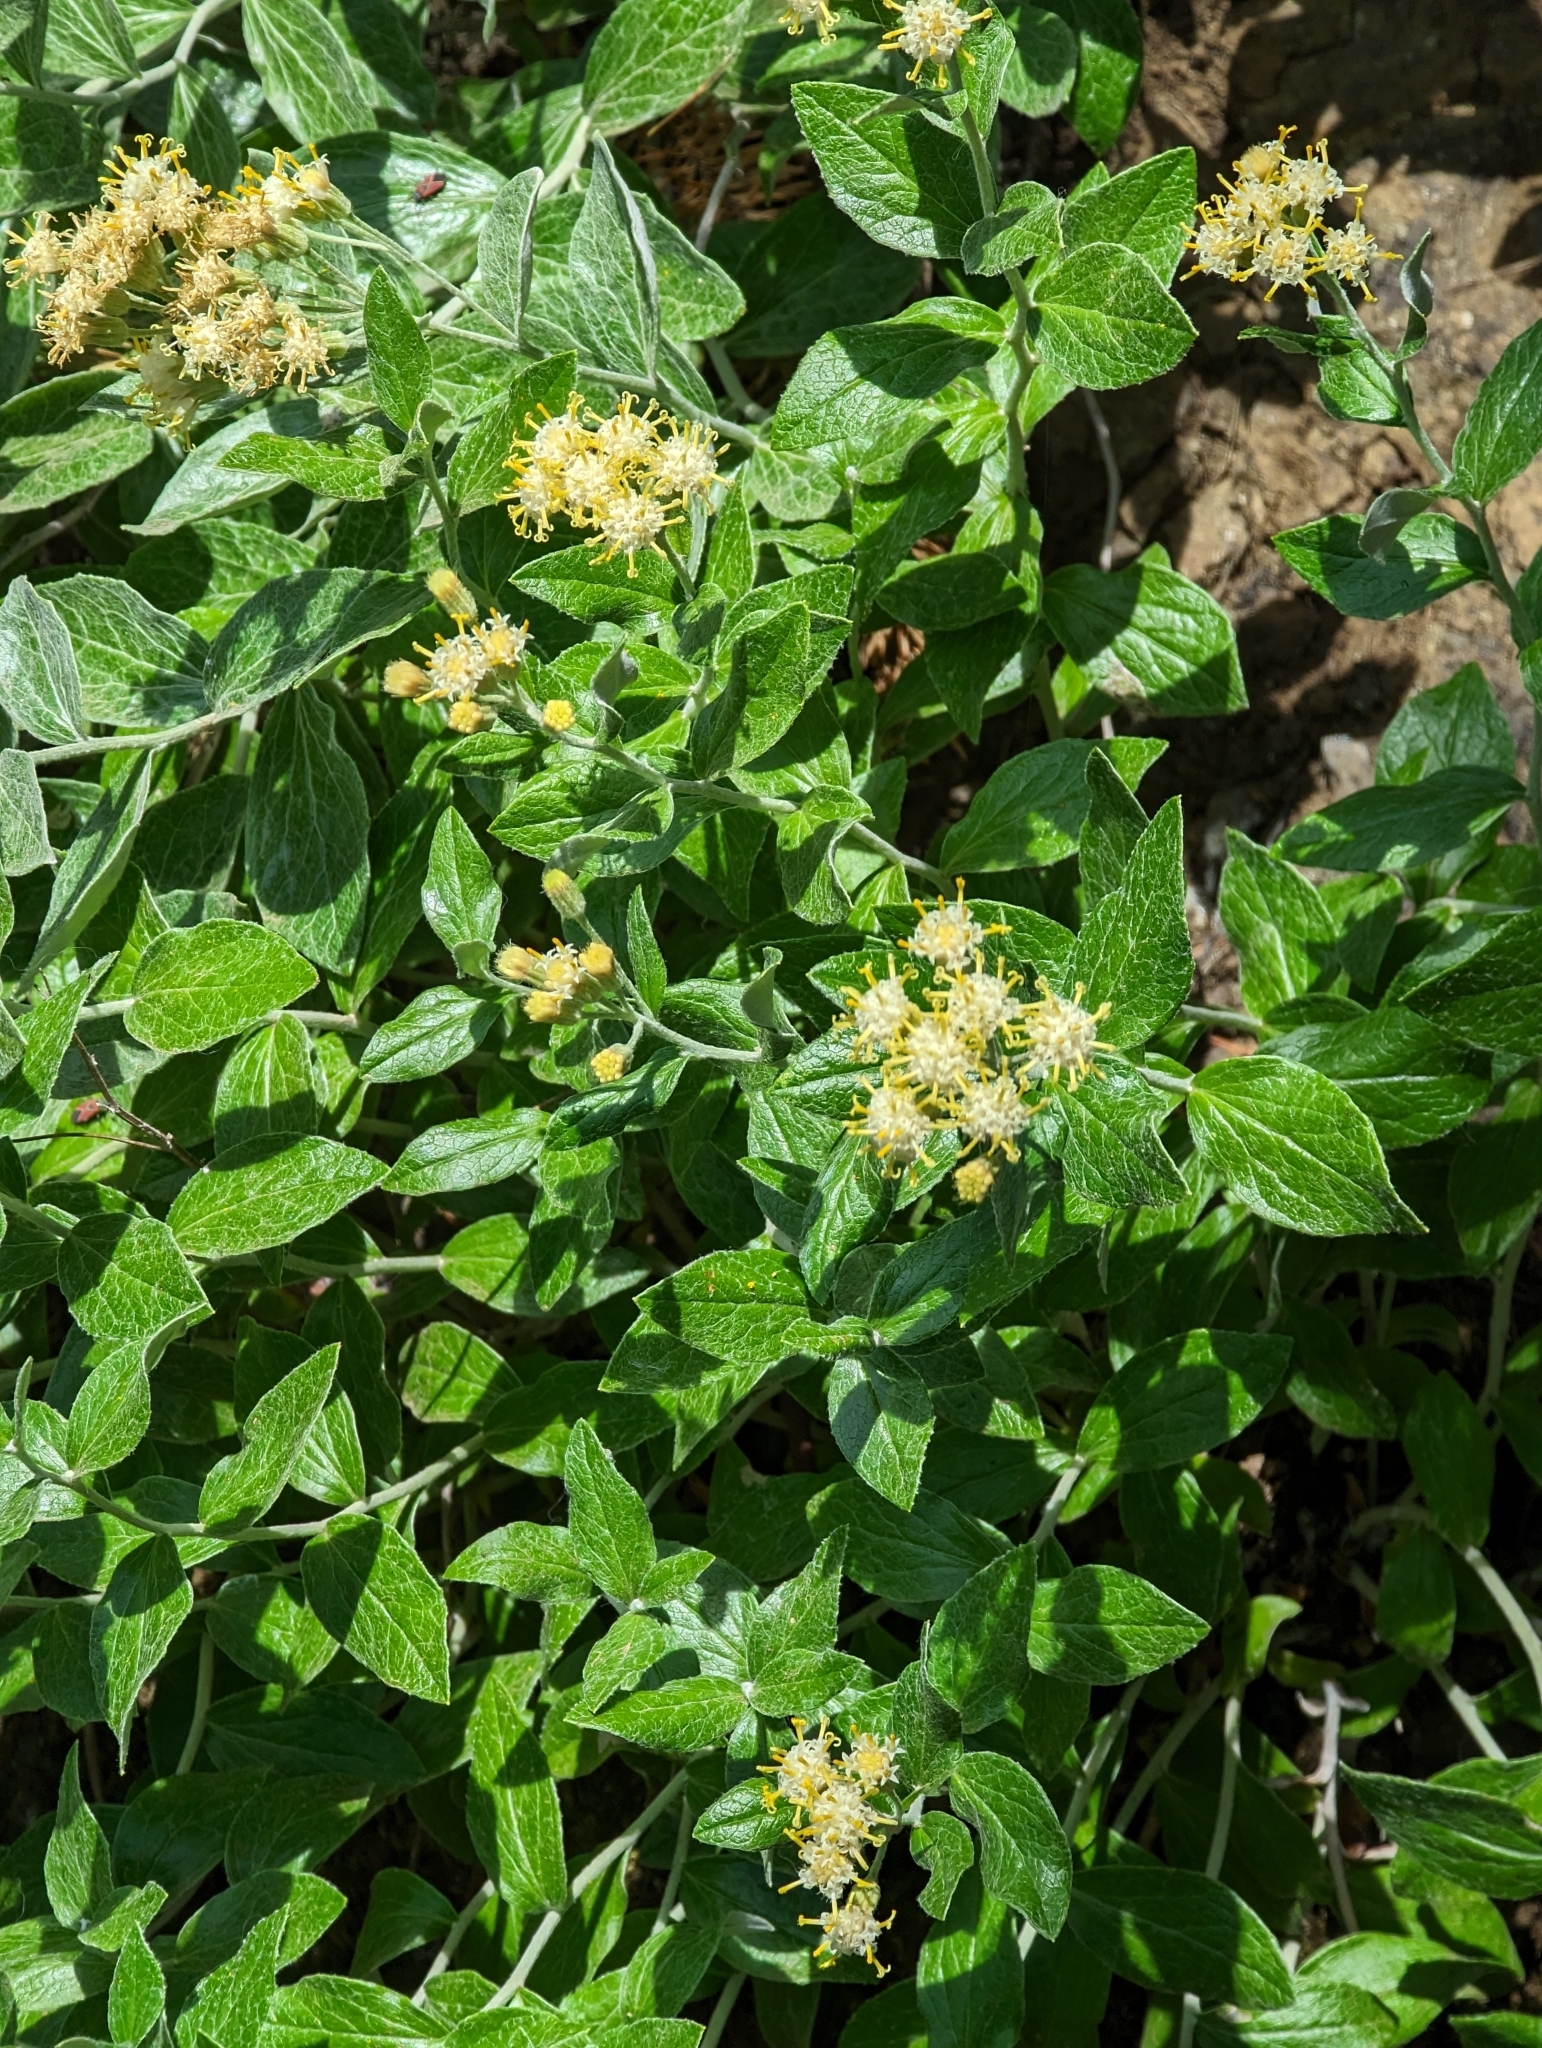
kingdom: Plantae
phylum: Tracheophyta
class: Magnoliopsida
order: Asterales
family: Asteraceae
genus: Luina
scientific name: Luina hypoleuca
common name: Little-leaved luina
